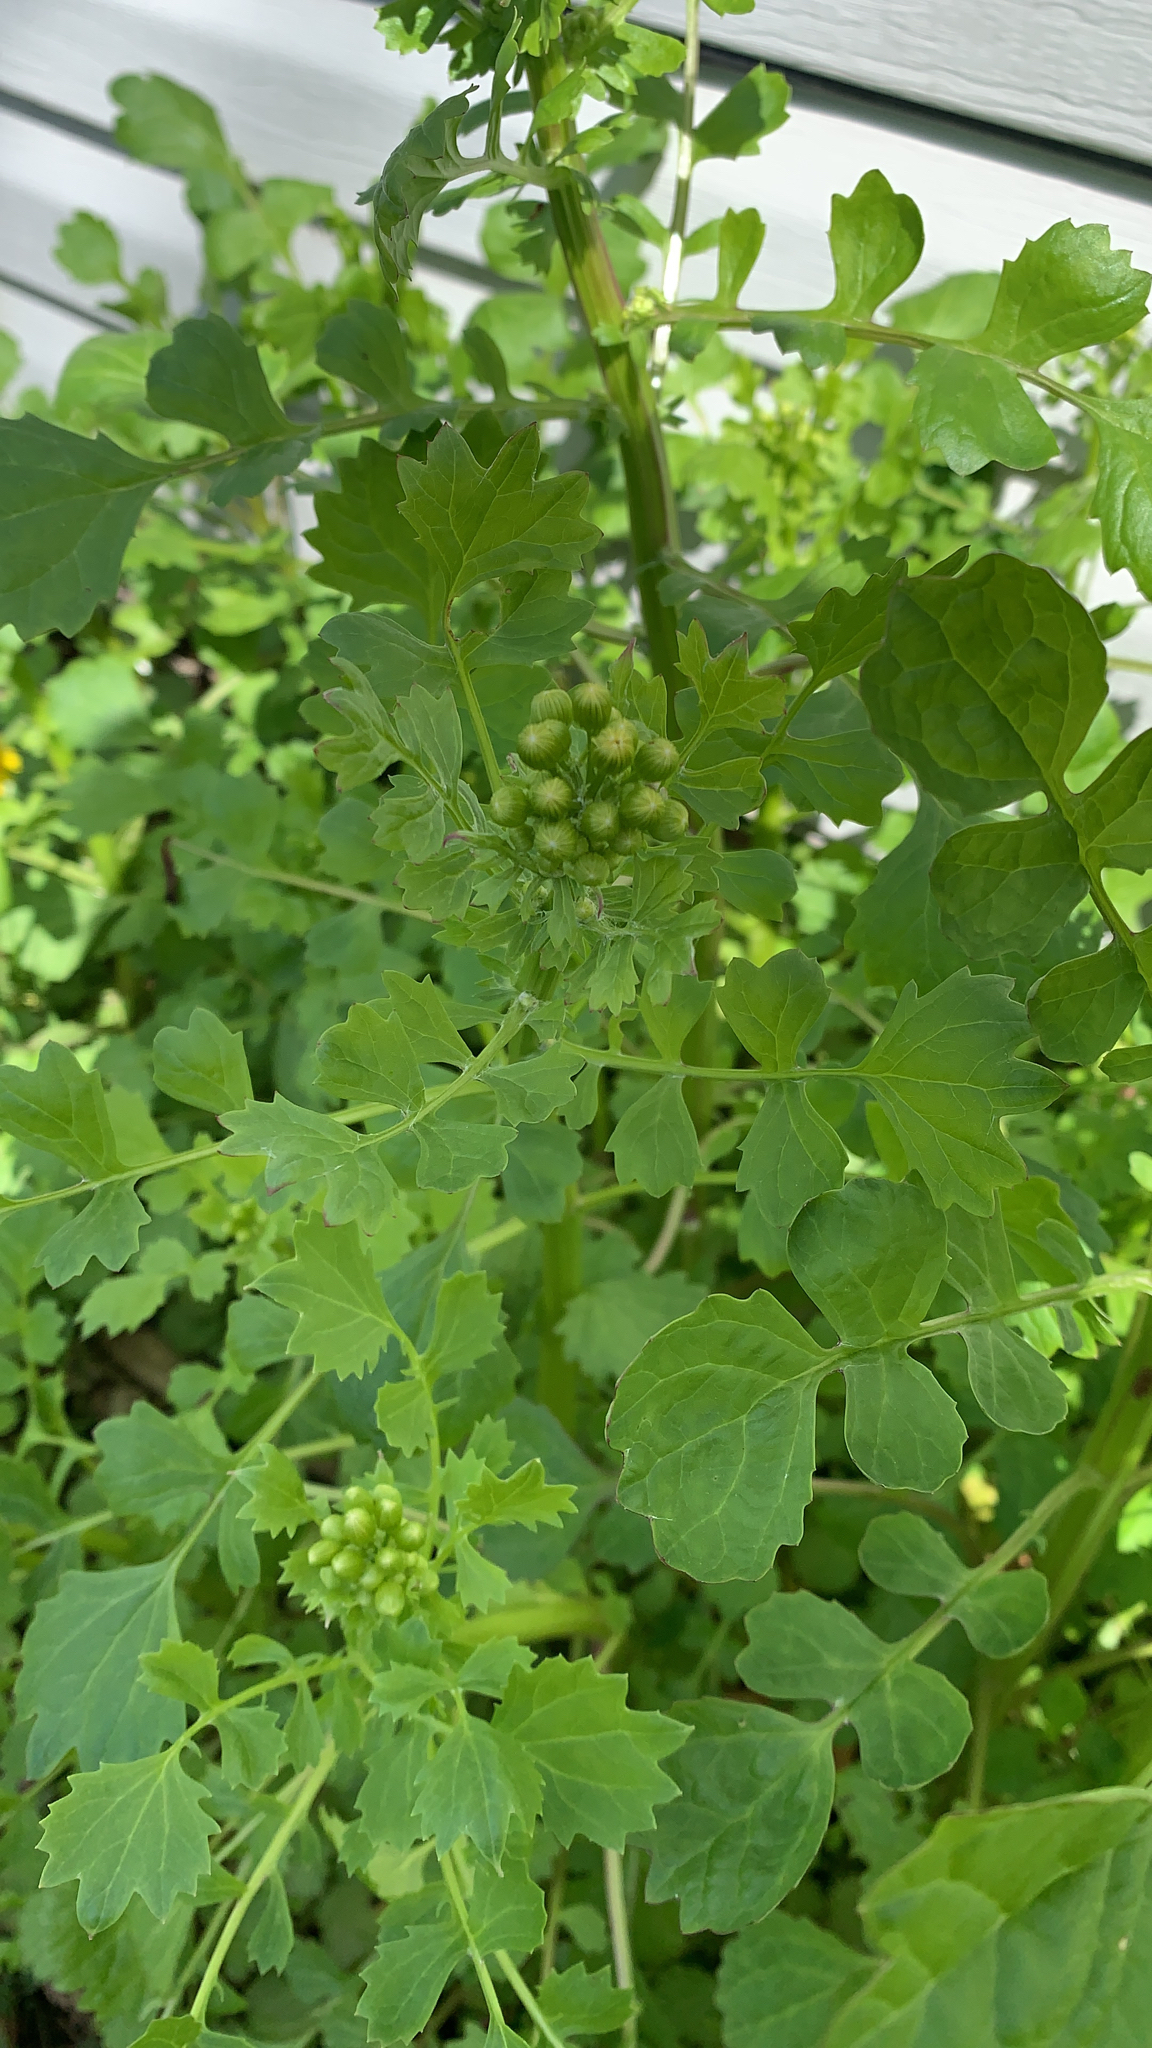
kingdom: Plantae
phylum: Tracheophyta
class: Magnoliopsida
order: Asterales
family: Asteraceae
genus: Packera
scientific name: Packera glabella
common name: Butterweed
